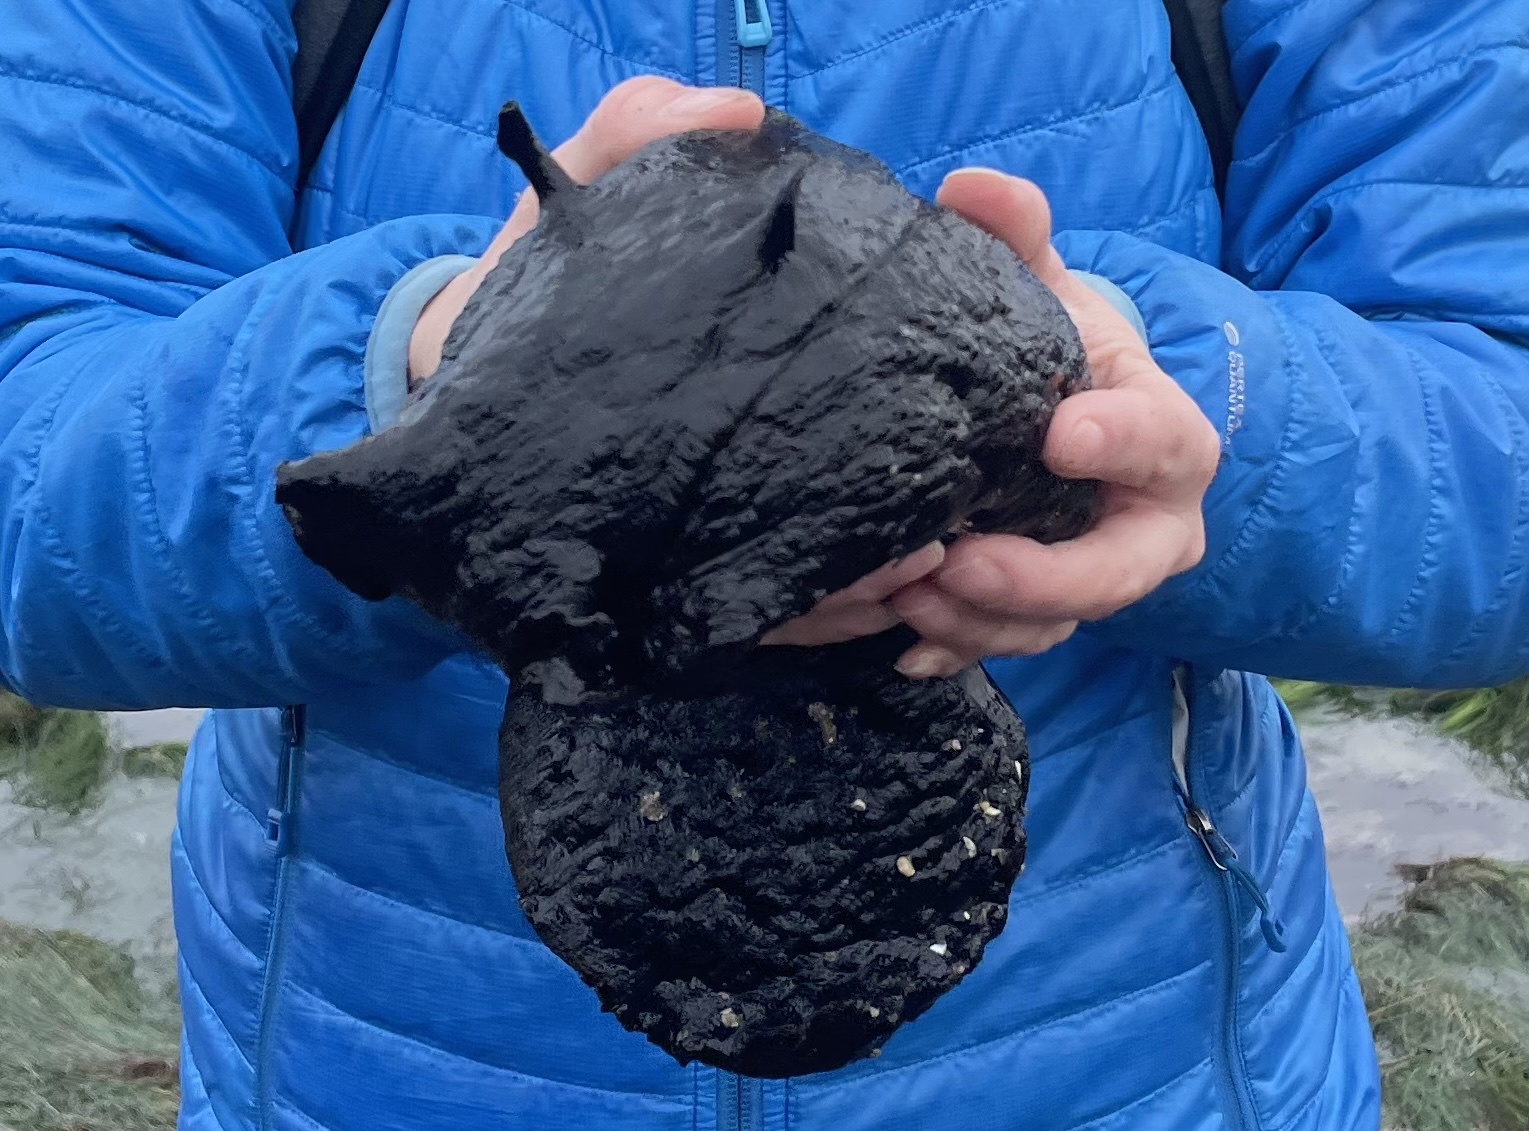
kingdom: Animalia
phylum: Mollusca
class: Gastropoda
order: Aplysiida
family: Aplysiidae
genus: Aplysia
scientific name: Aplysia vaccaria
